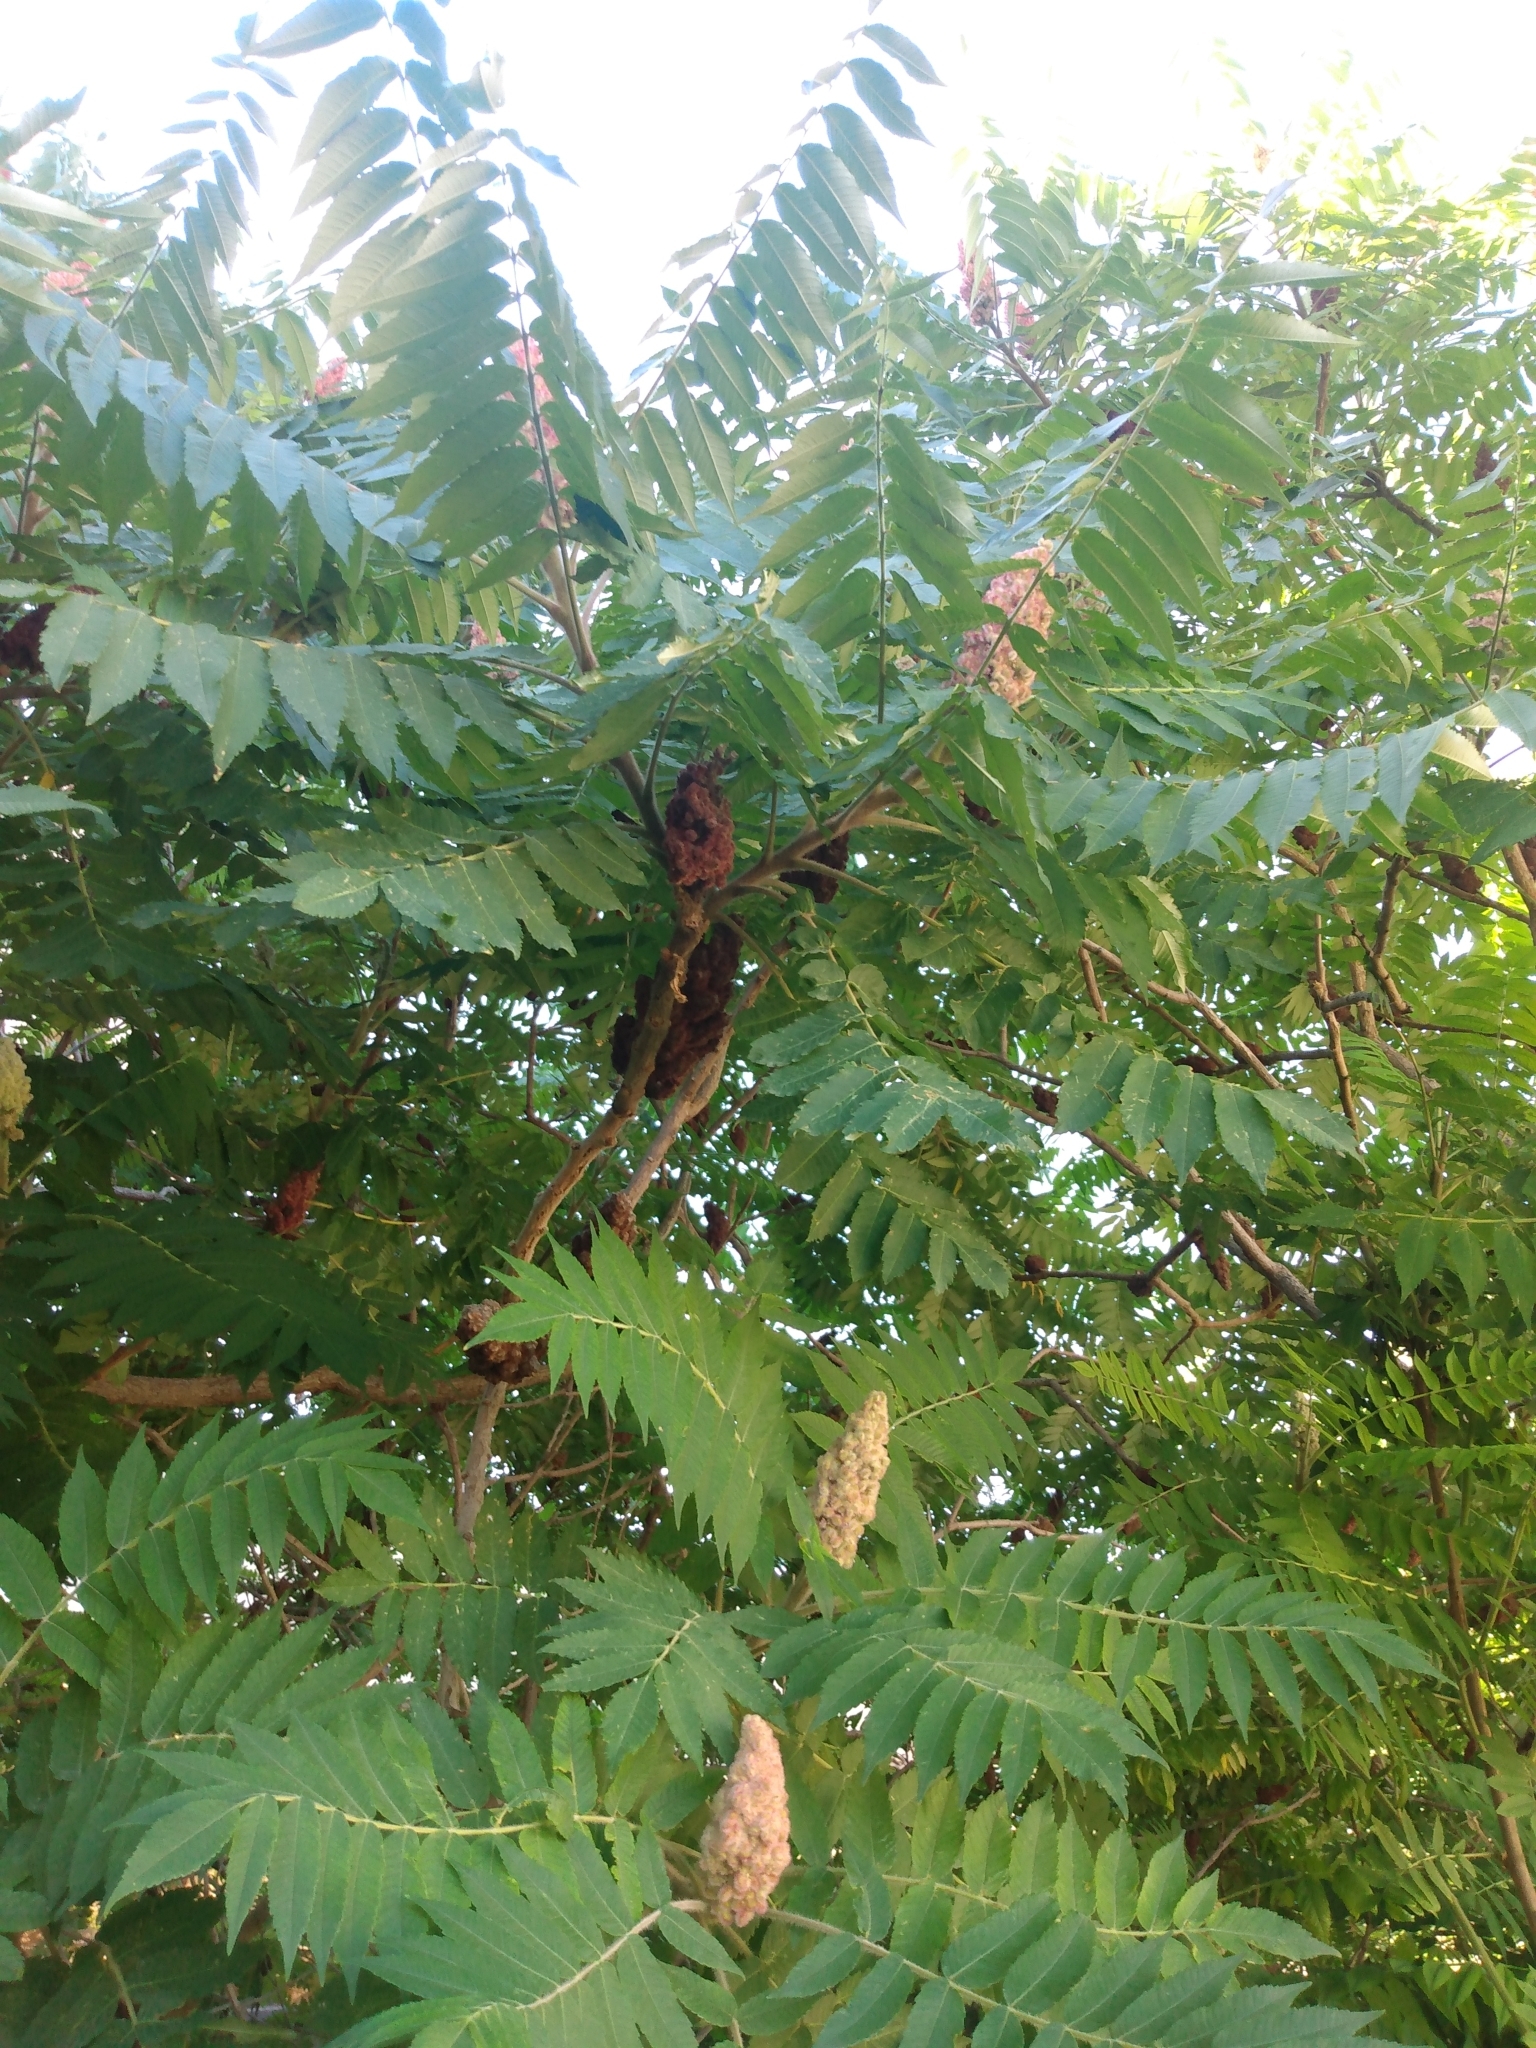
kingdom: Plantae
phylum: Tracheophyta
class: Magnoliopsida
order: Sapindales
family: Anacardiaceae
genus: Rhus
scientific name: Rhus typhina
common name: Staghorn sumac
